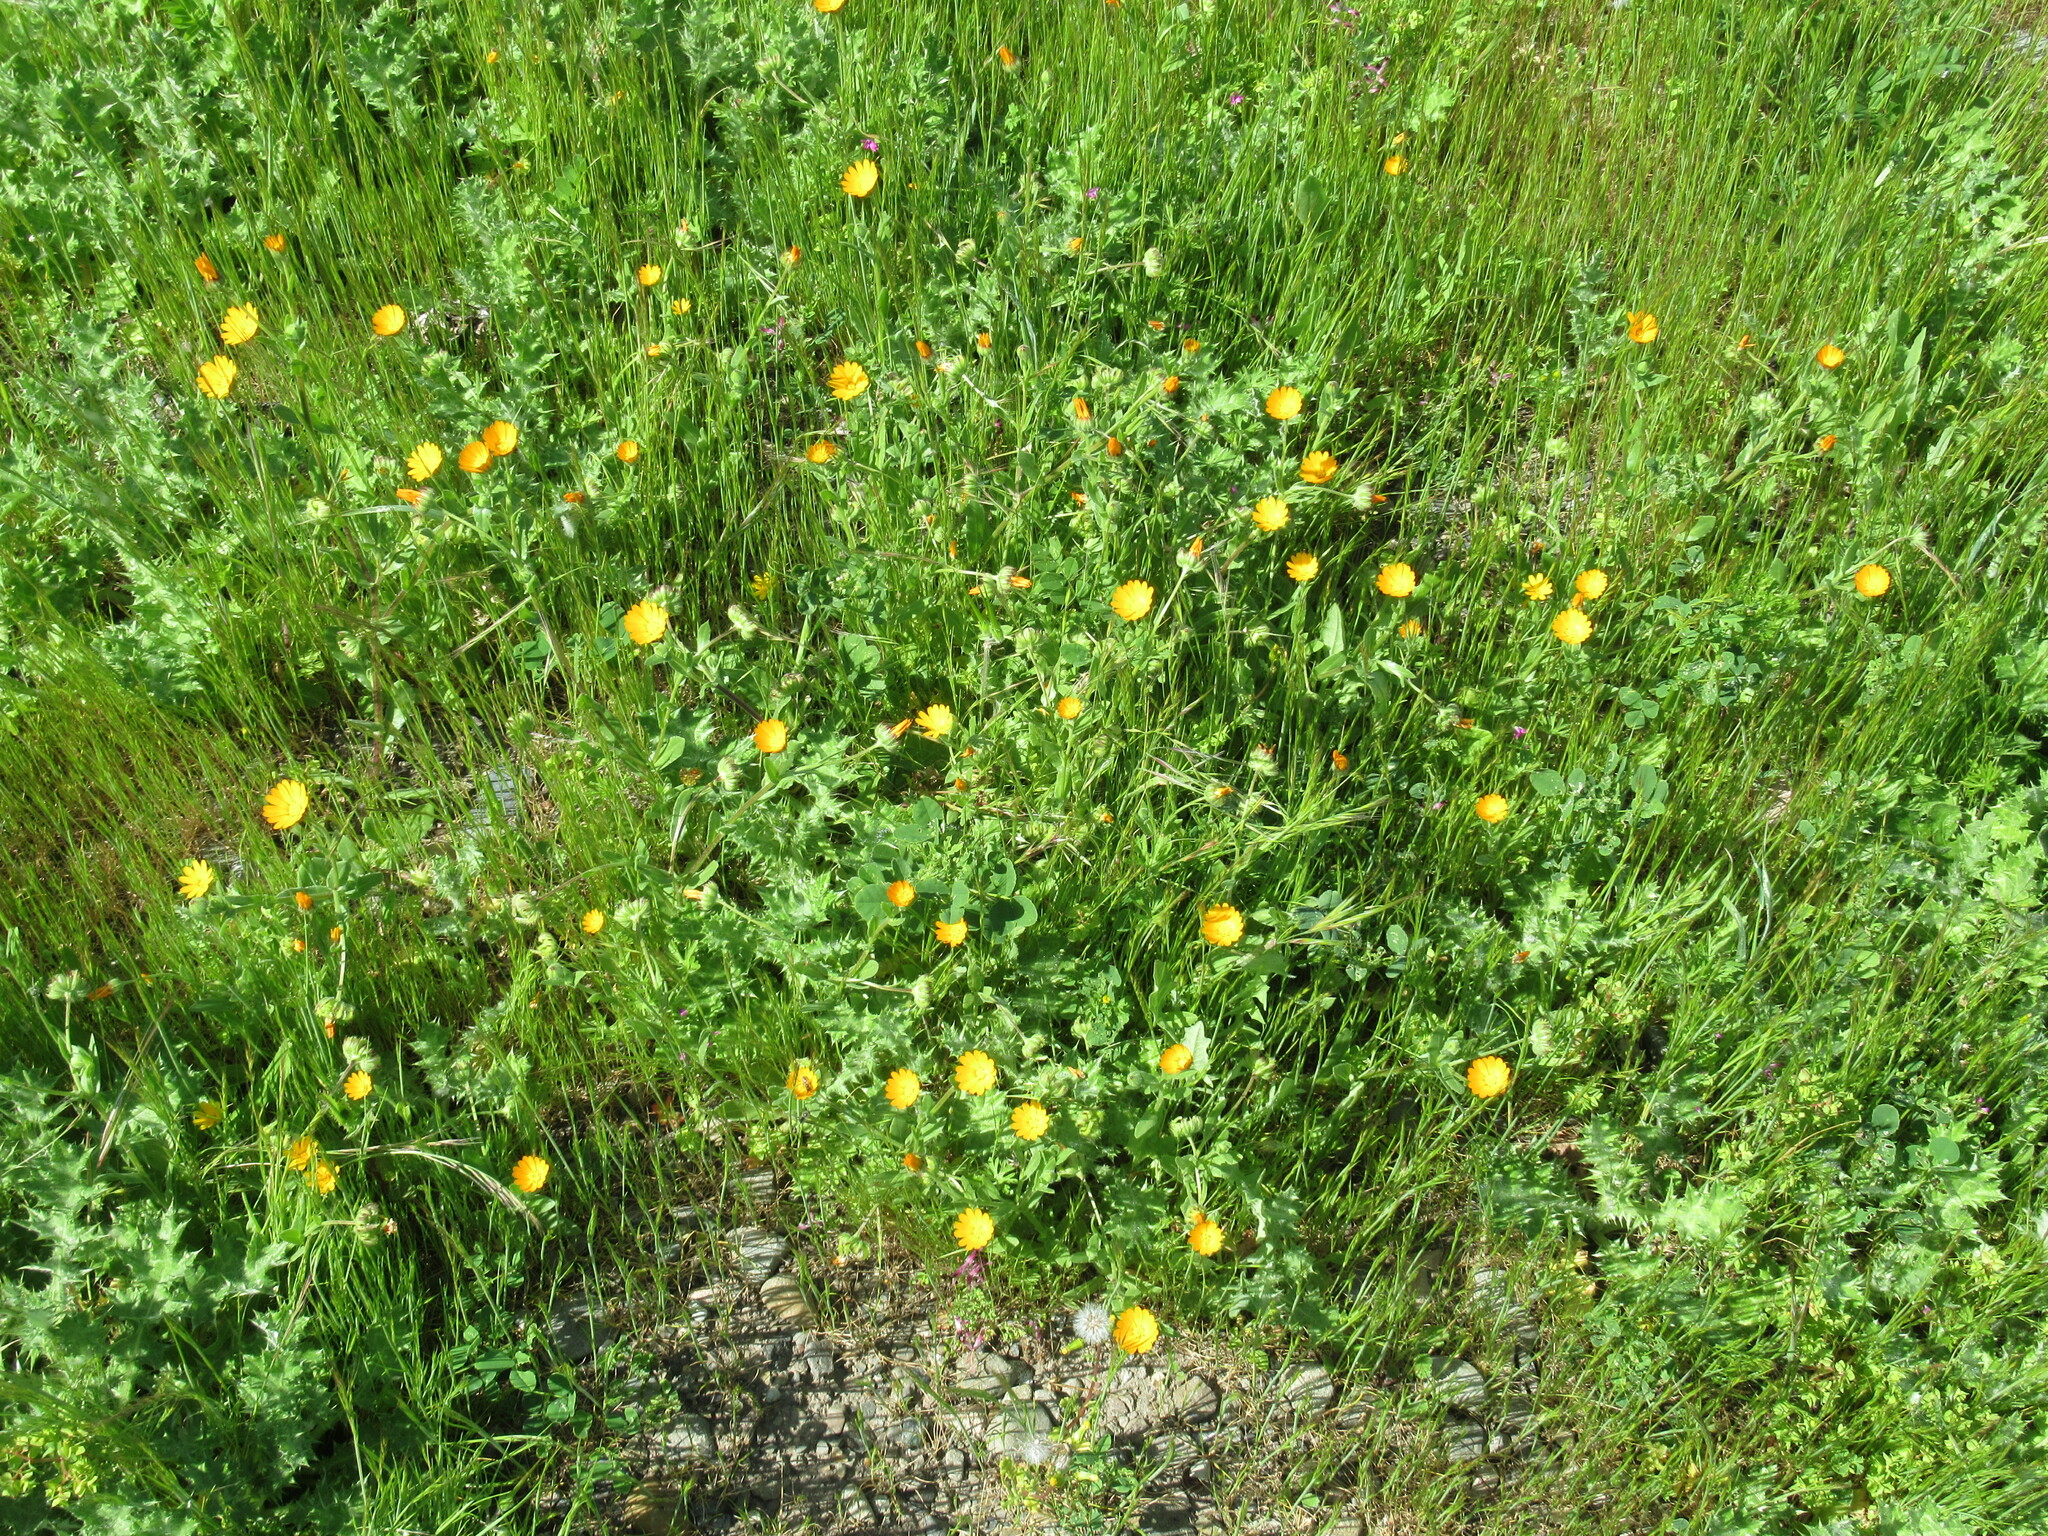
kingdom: Plantae
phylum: Tracheophyta
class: Magnoliopsida
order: Asterales
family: Asteraceae
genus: Calendula
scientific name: Calendula arvensis
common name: Field marigold
